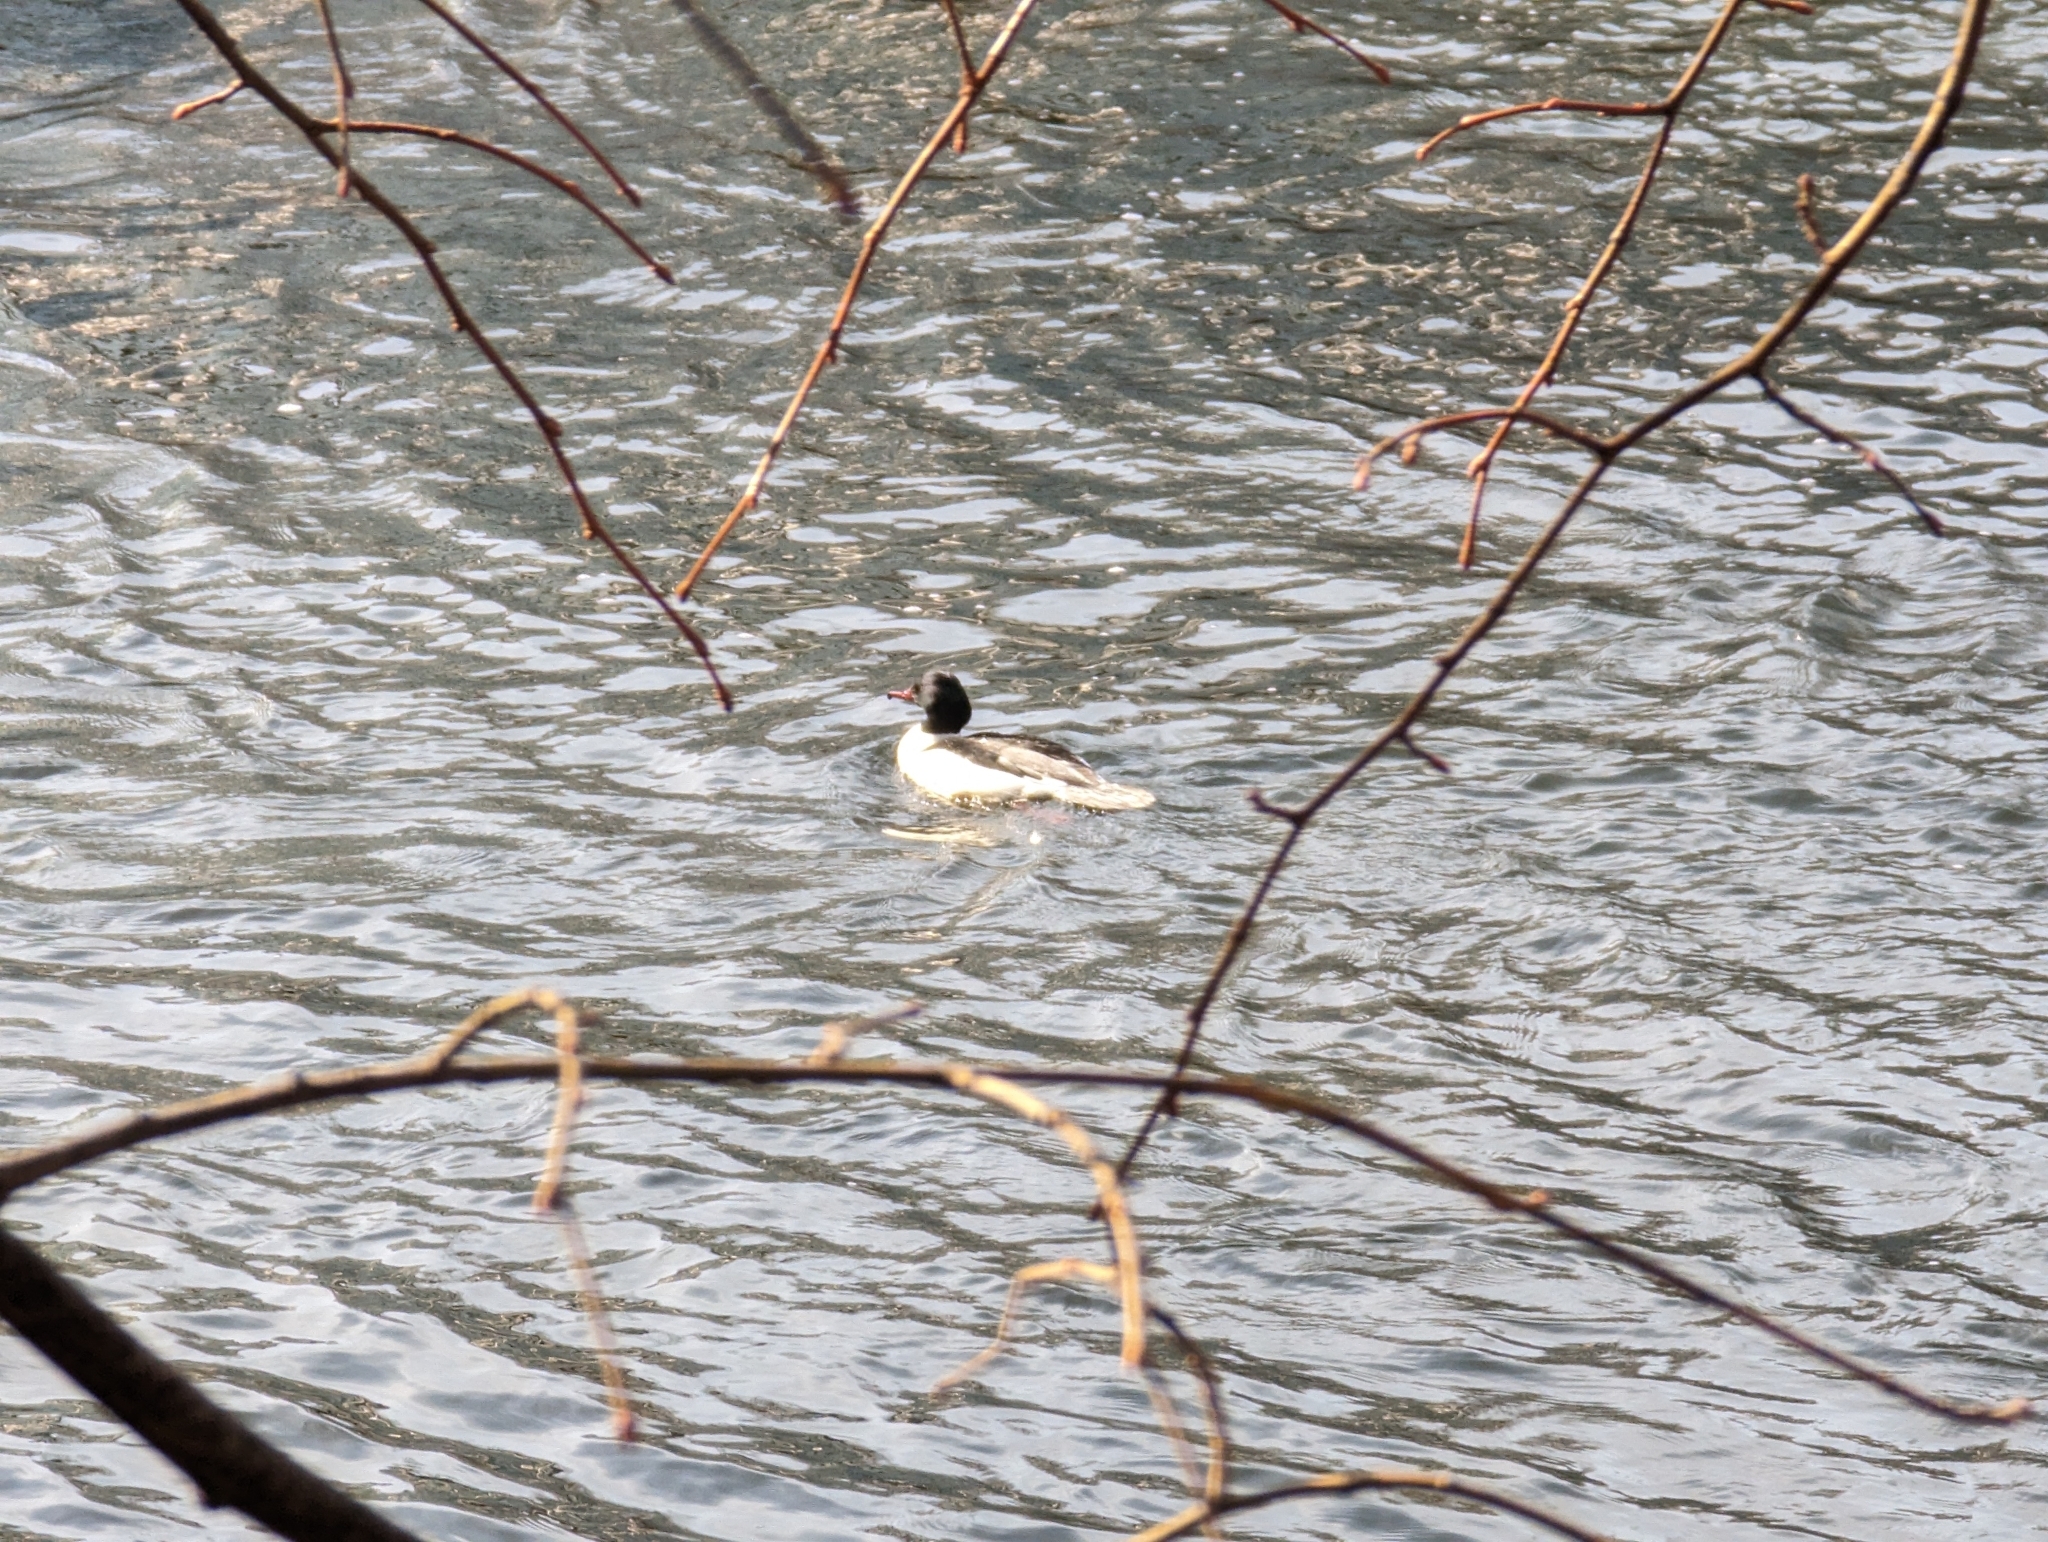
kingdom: Animalia
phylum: Chordata
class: Aves
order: Anseriformes
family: Anatidae
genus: Mergus
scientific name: Mergus merganser
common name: Common merganser
